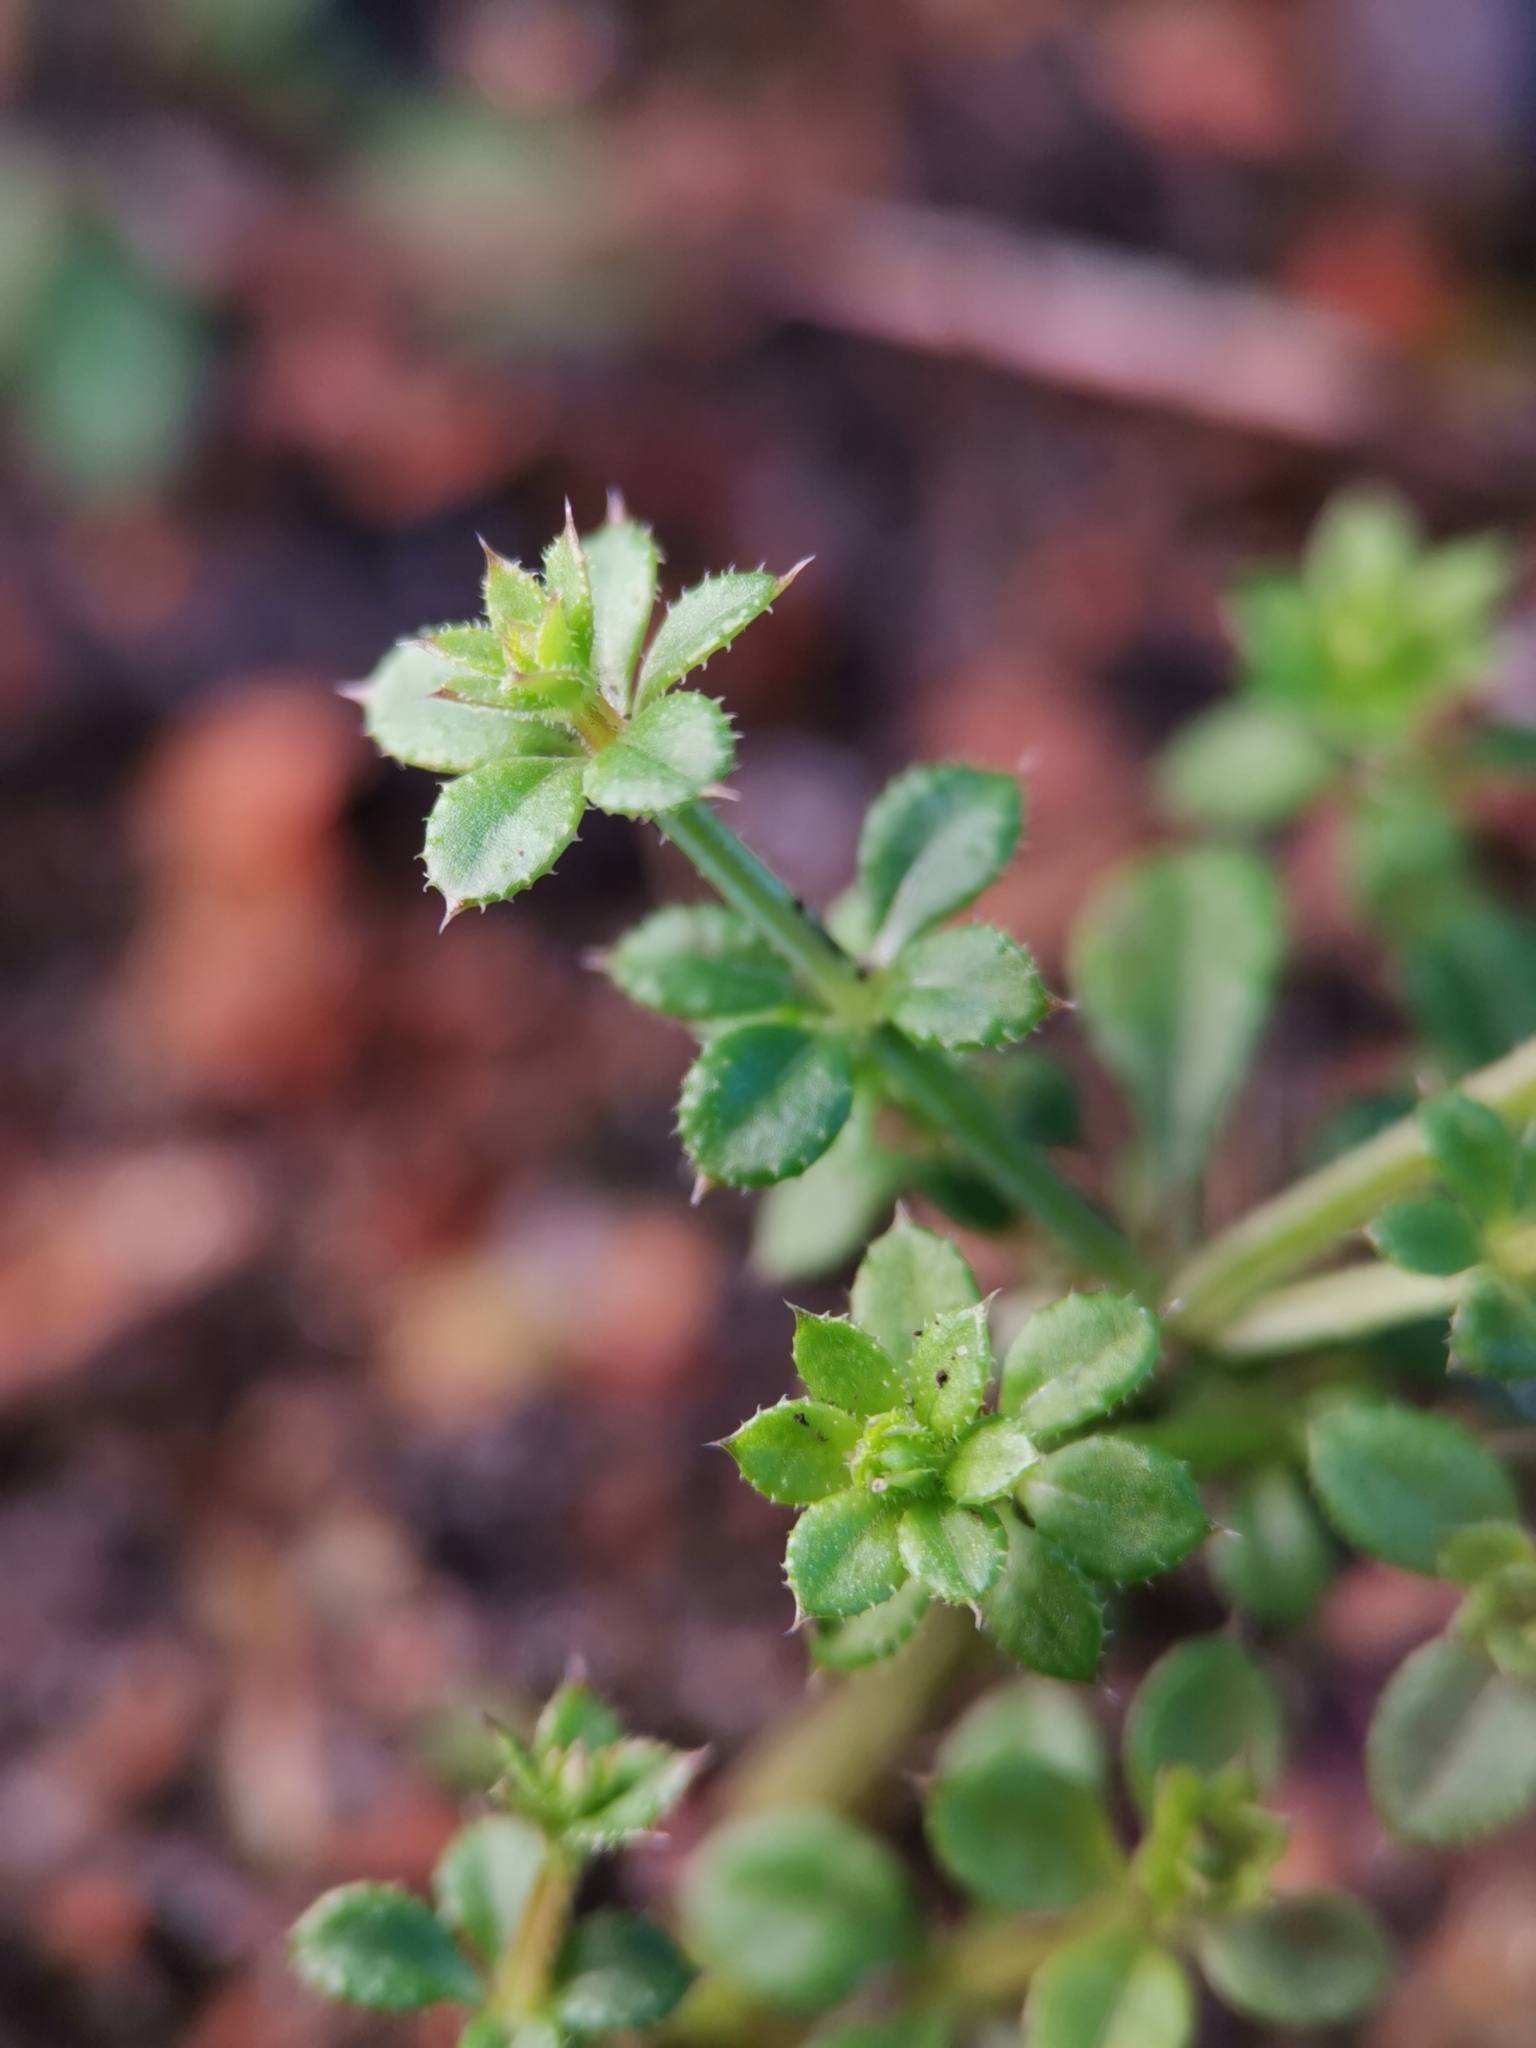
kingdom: Plantae
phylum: Tracheophyta
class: Magnoliopsida
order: Gentianales
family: Rubiaceae
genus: Galium
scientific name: Galium aparine
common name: Cleavers
